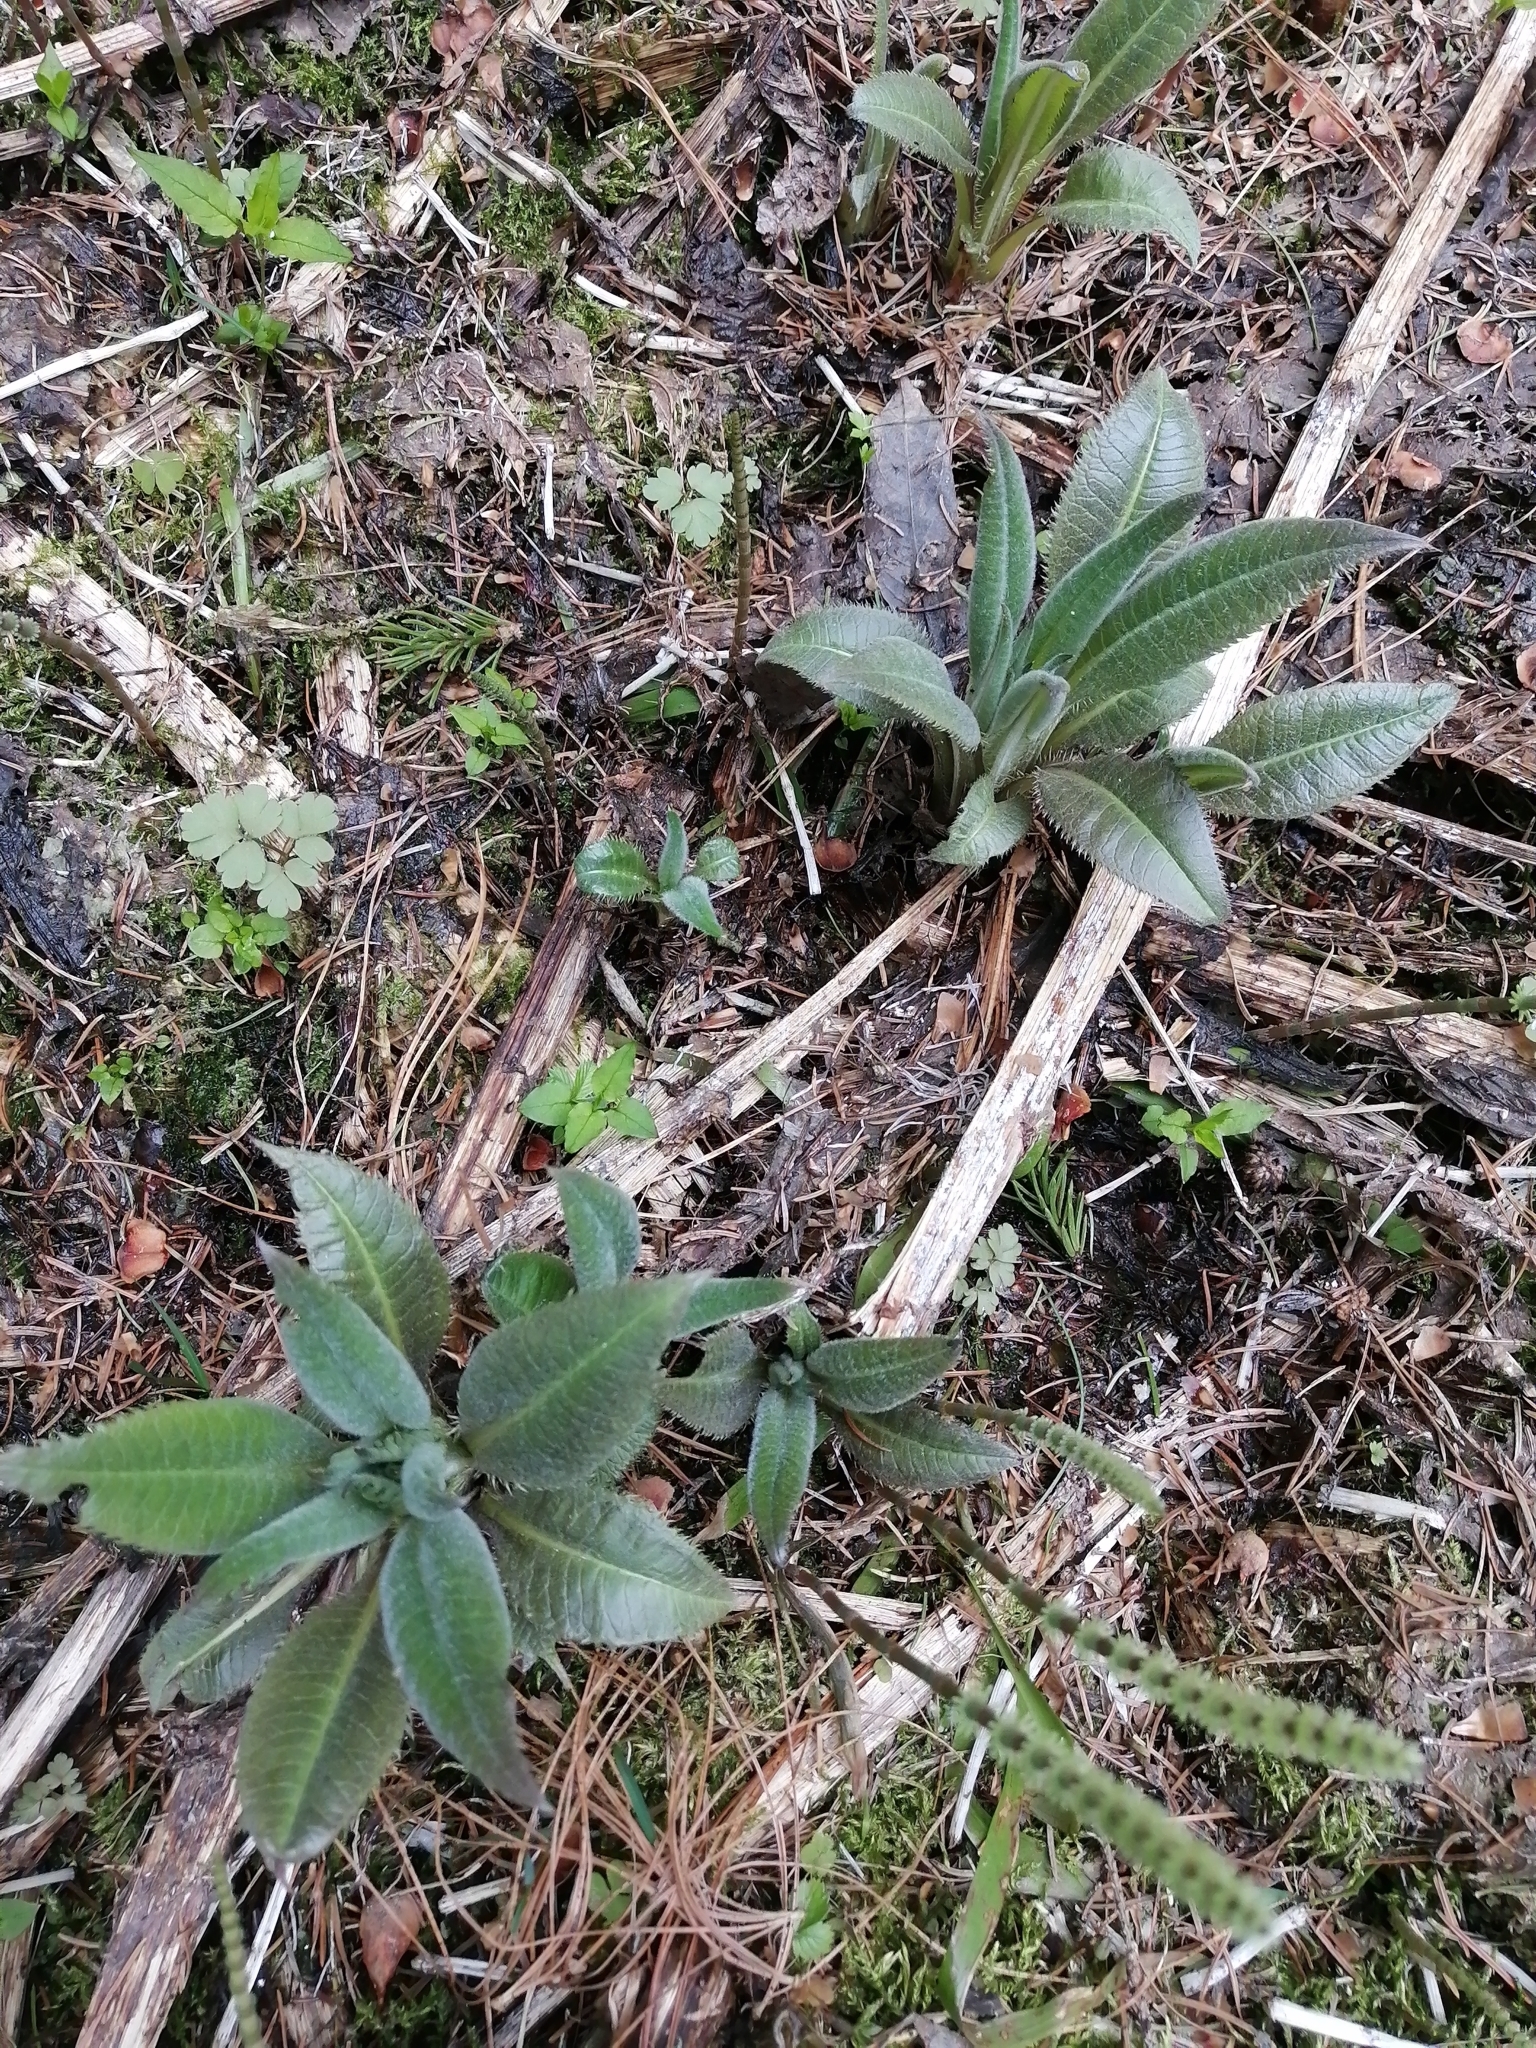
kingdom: Plantae
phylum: Tracheophyta
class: Magnoliopsida
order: Asterales
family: Asteraceae
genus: Cirsium
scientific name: Cirsium heterophyllum
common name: Melancholy thistle
